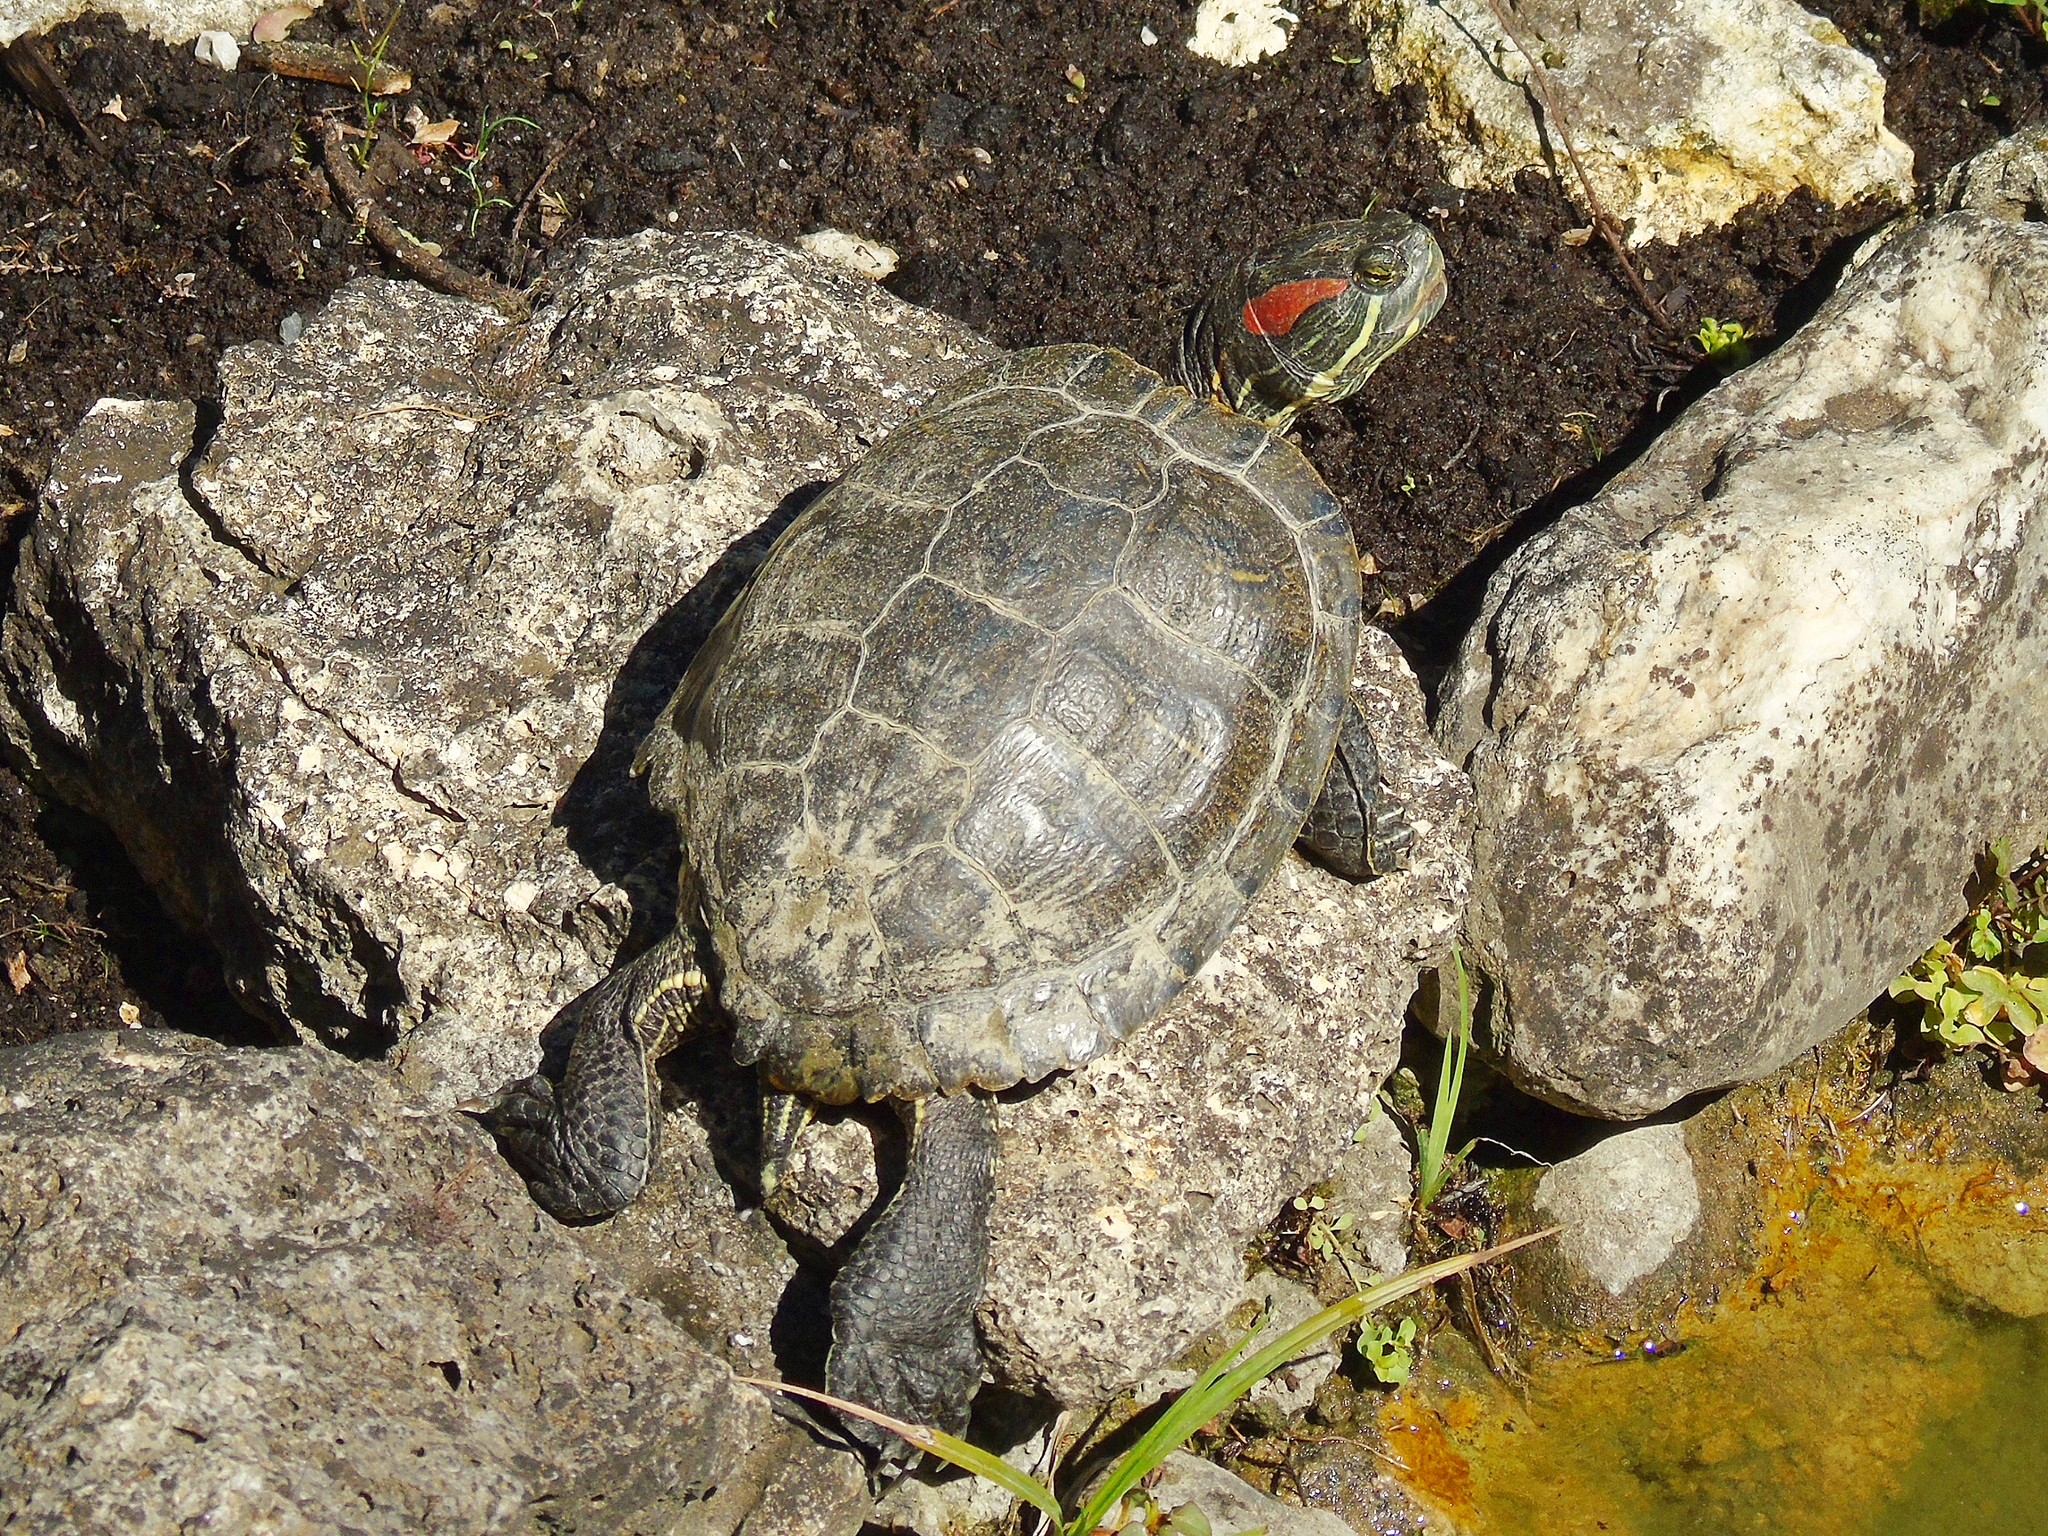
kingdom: Animalia
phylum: Chordata
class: Testudines
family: Emydidae
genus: Trachemys
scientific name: Trachemys scripta
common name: Slider
